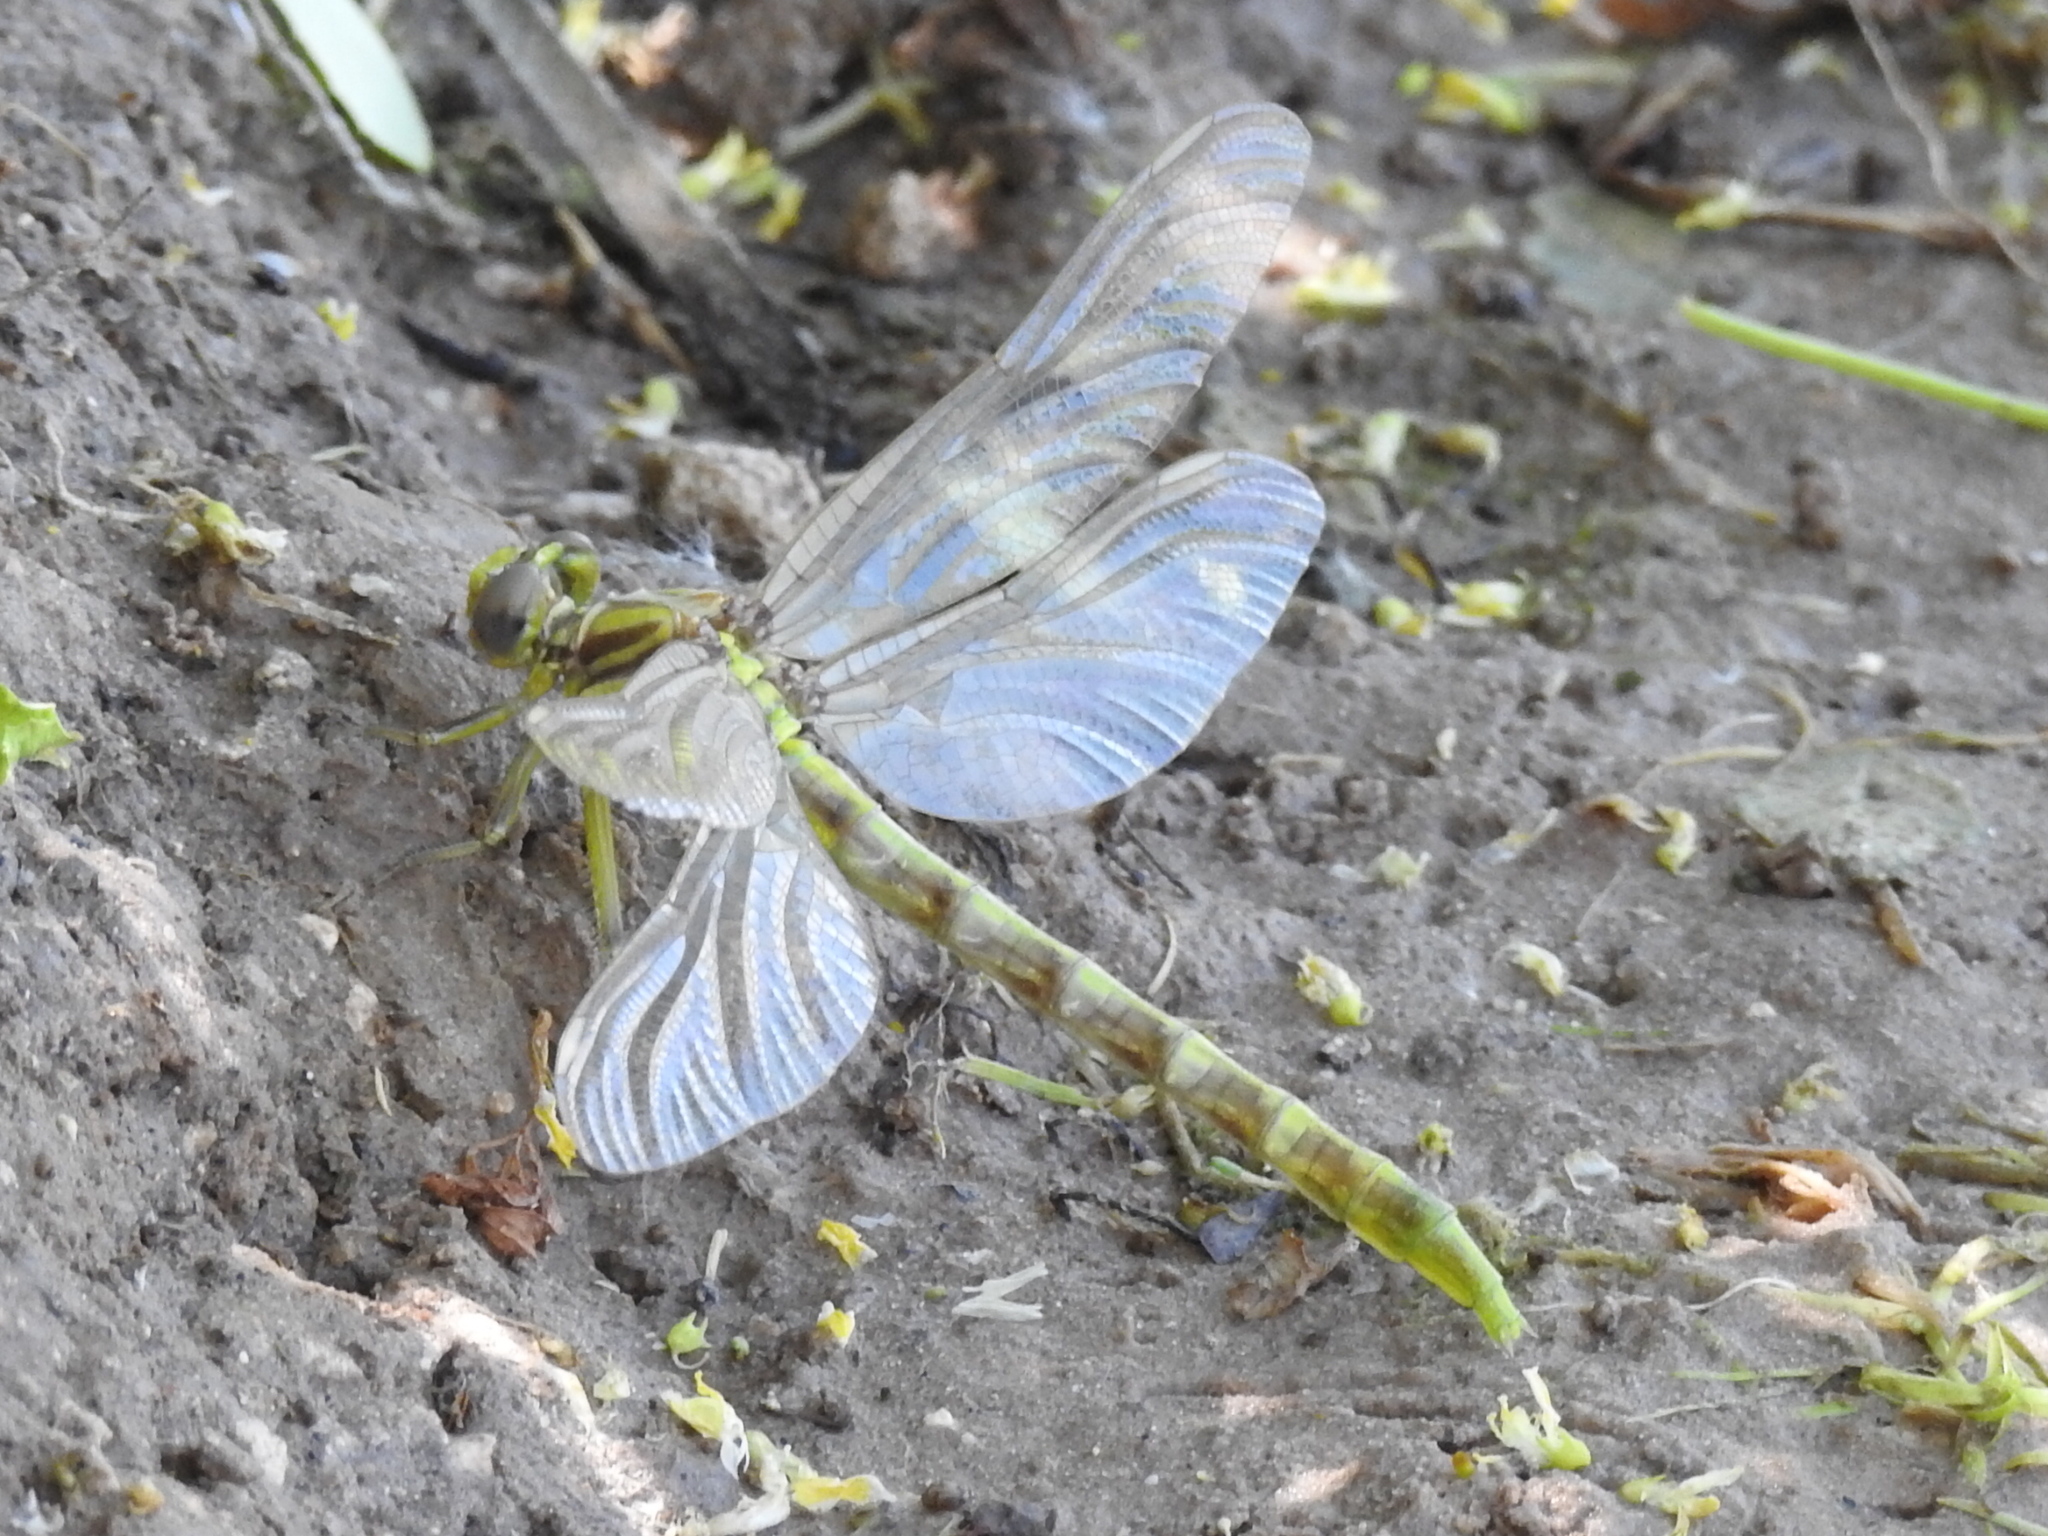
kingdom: Animalia
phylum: Arthropoda
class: Insecta
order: Odonata
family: Gomphidae
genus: Phanogomphus
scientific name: Phanogomphus militaris
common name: Sulphur-tipped clubtail
